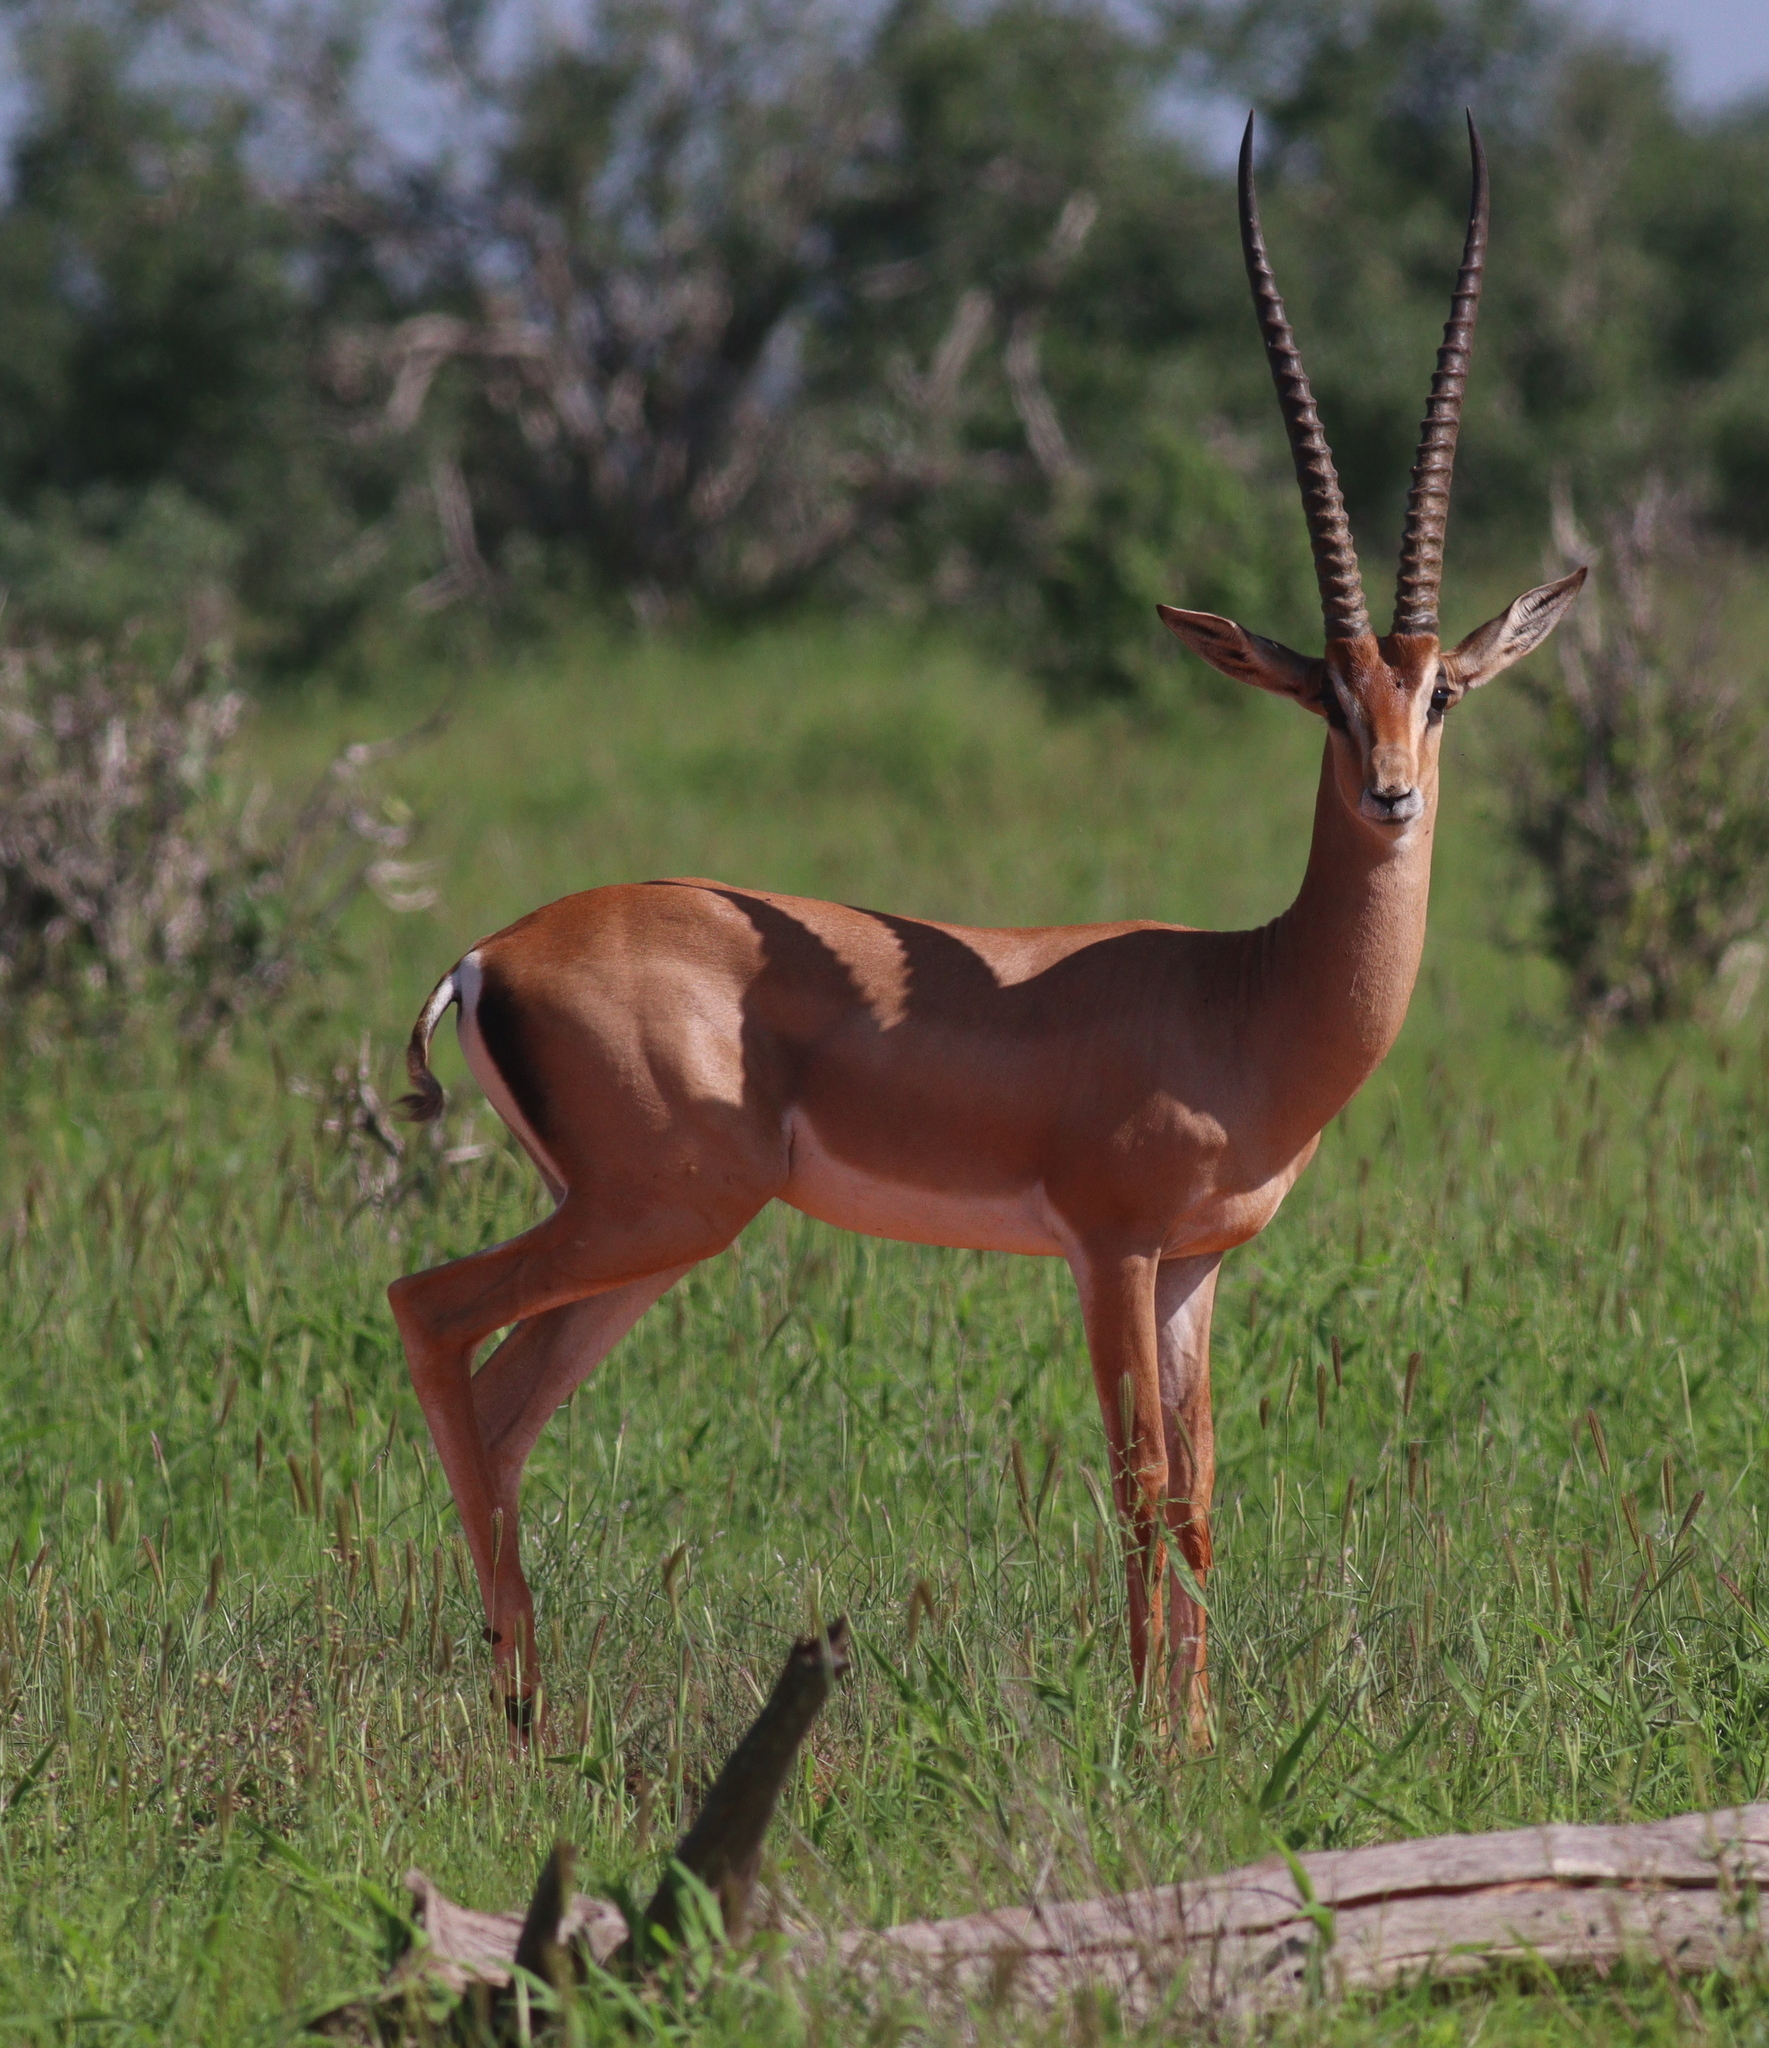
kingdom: Animalia
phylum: Chordata
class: Mammalia
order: Artiodactyla
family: Bovidae
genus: Nanger
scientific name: Nanger granti
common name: Grant's gazelle
